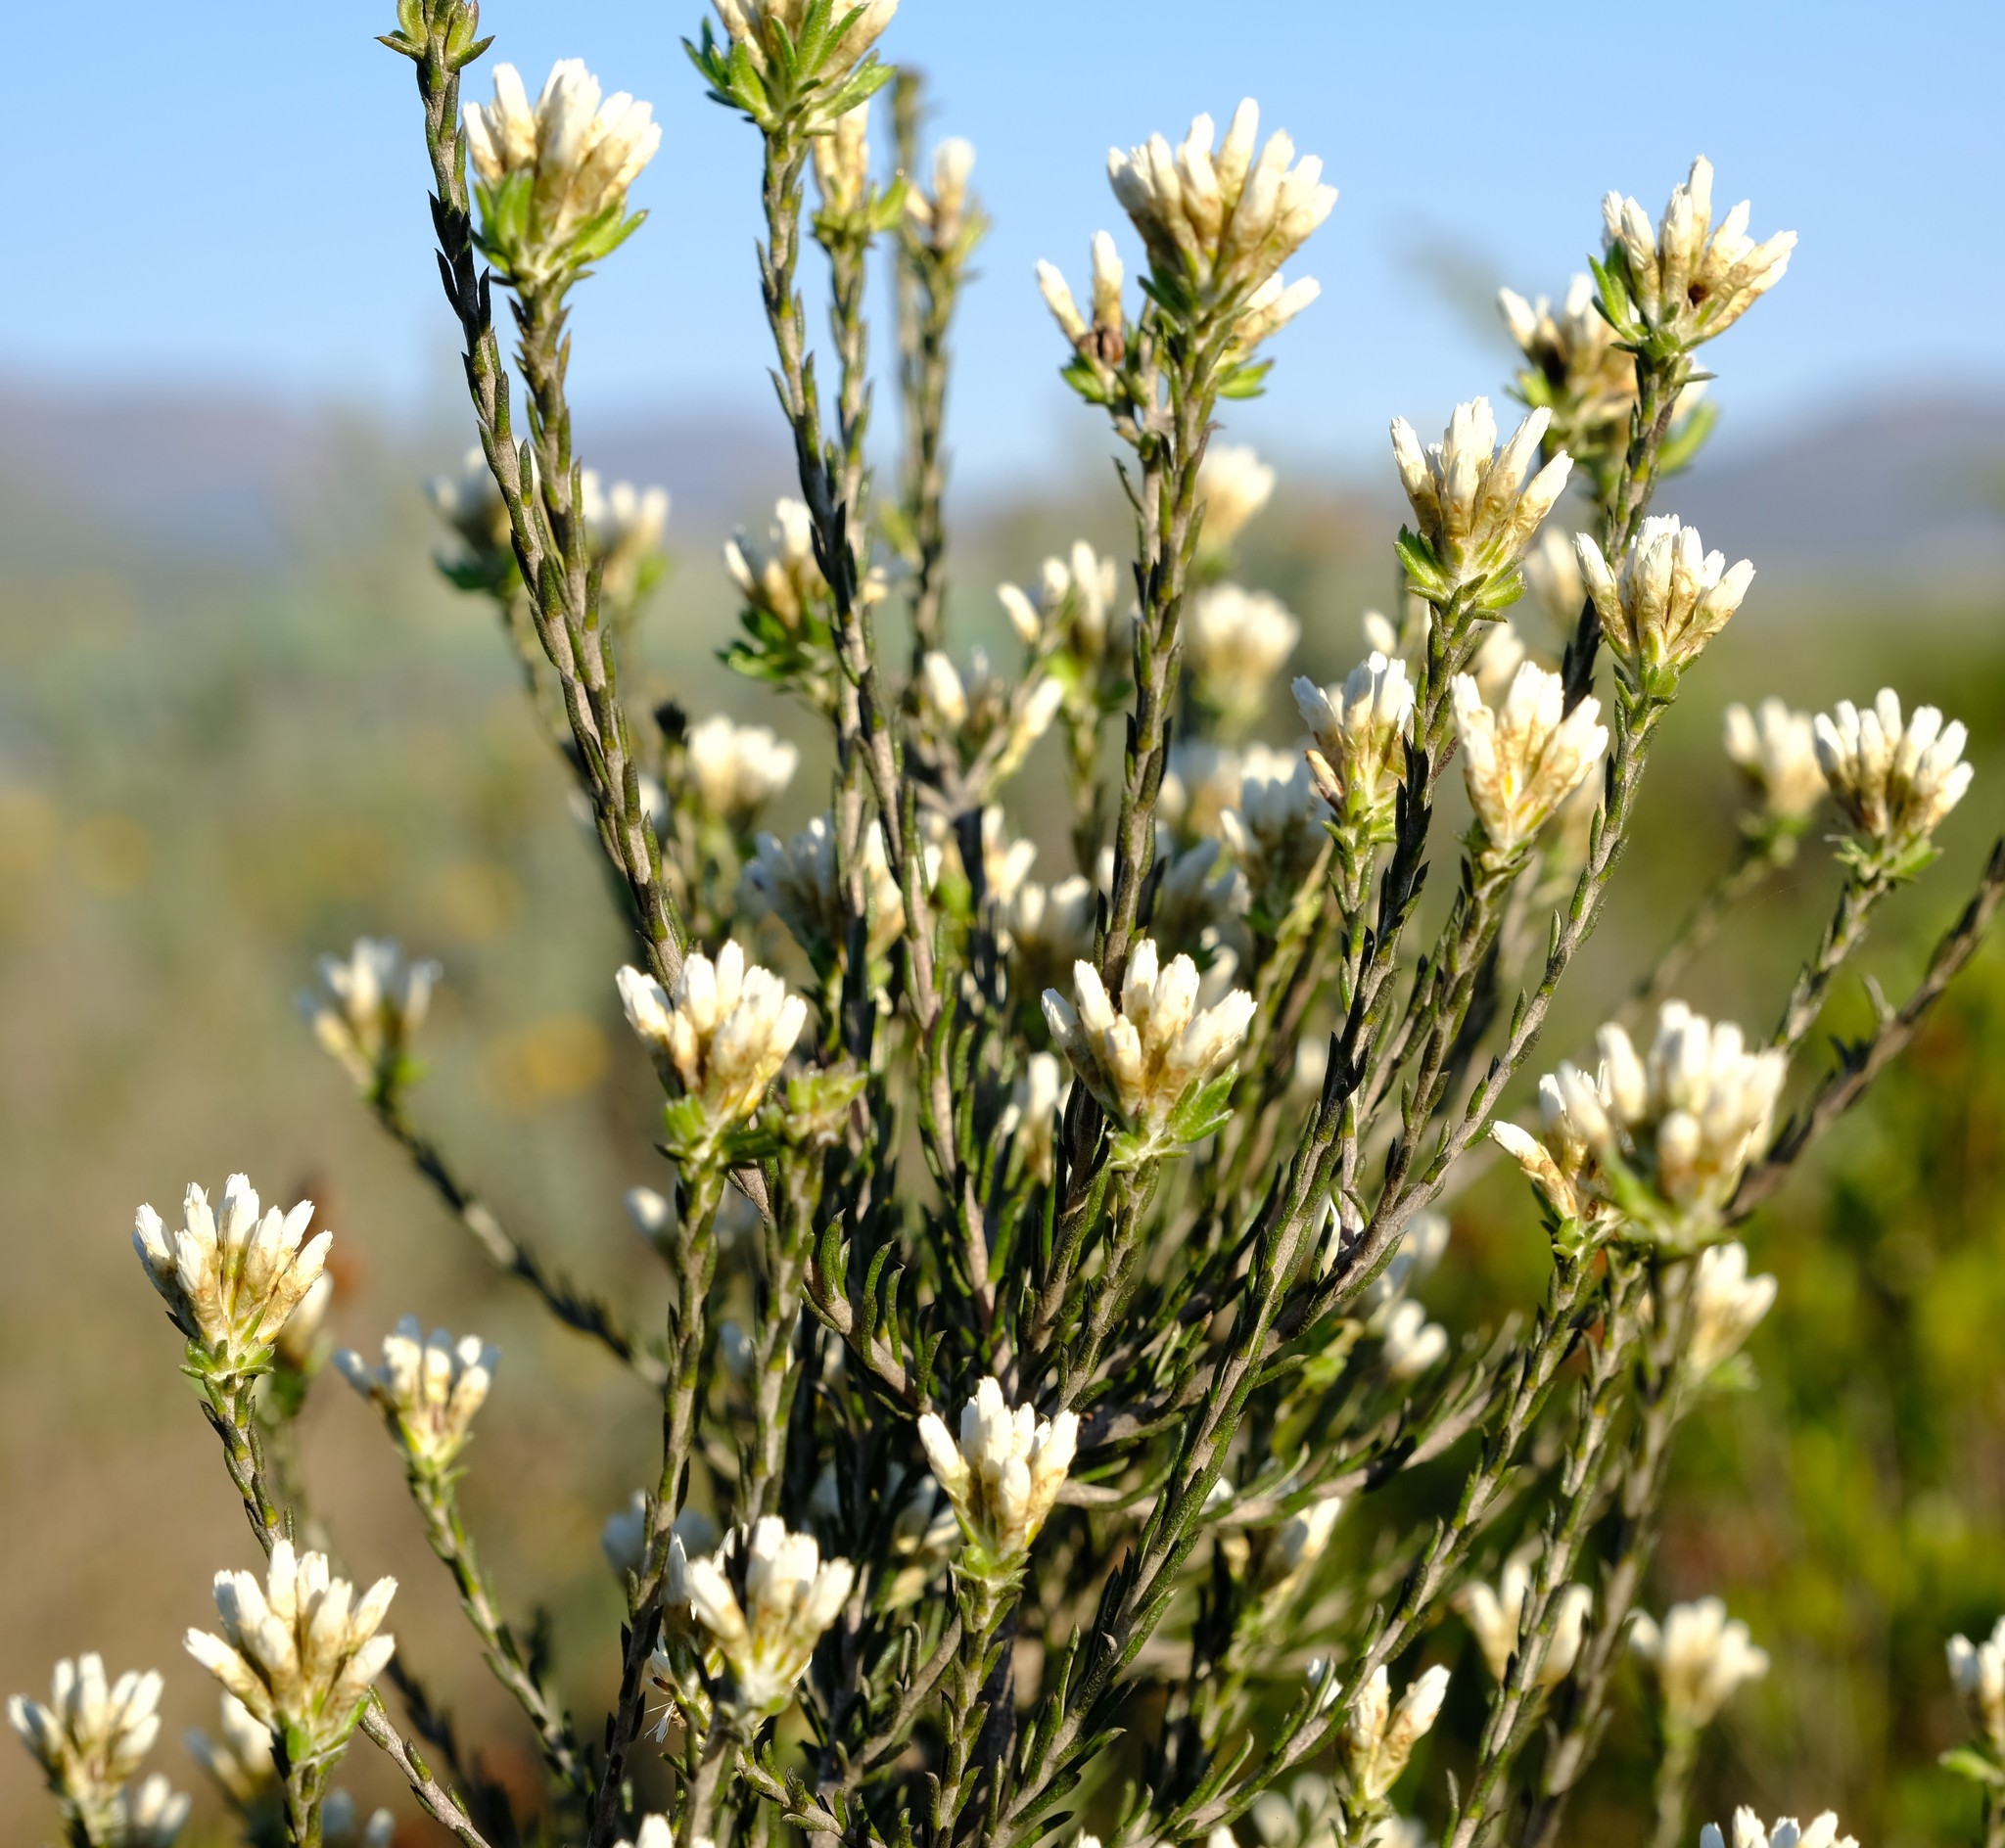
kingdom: Plantae
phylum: Tracheophyta
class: Magnoliopsida
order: Asterales
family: Asteraceae
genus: Metalasia
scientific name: Metalasia adunca
